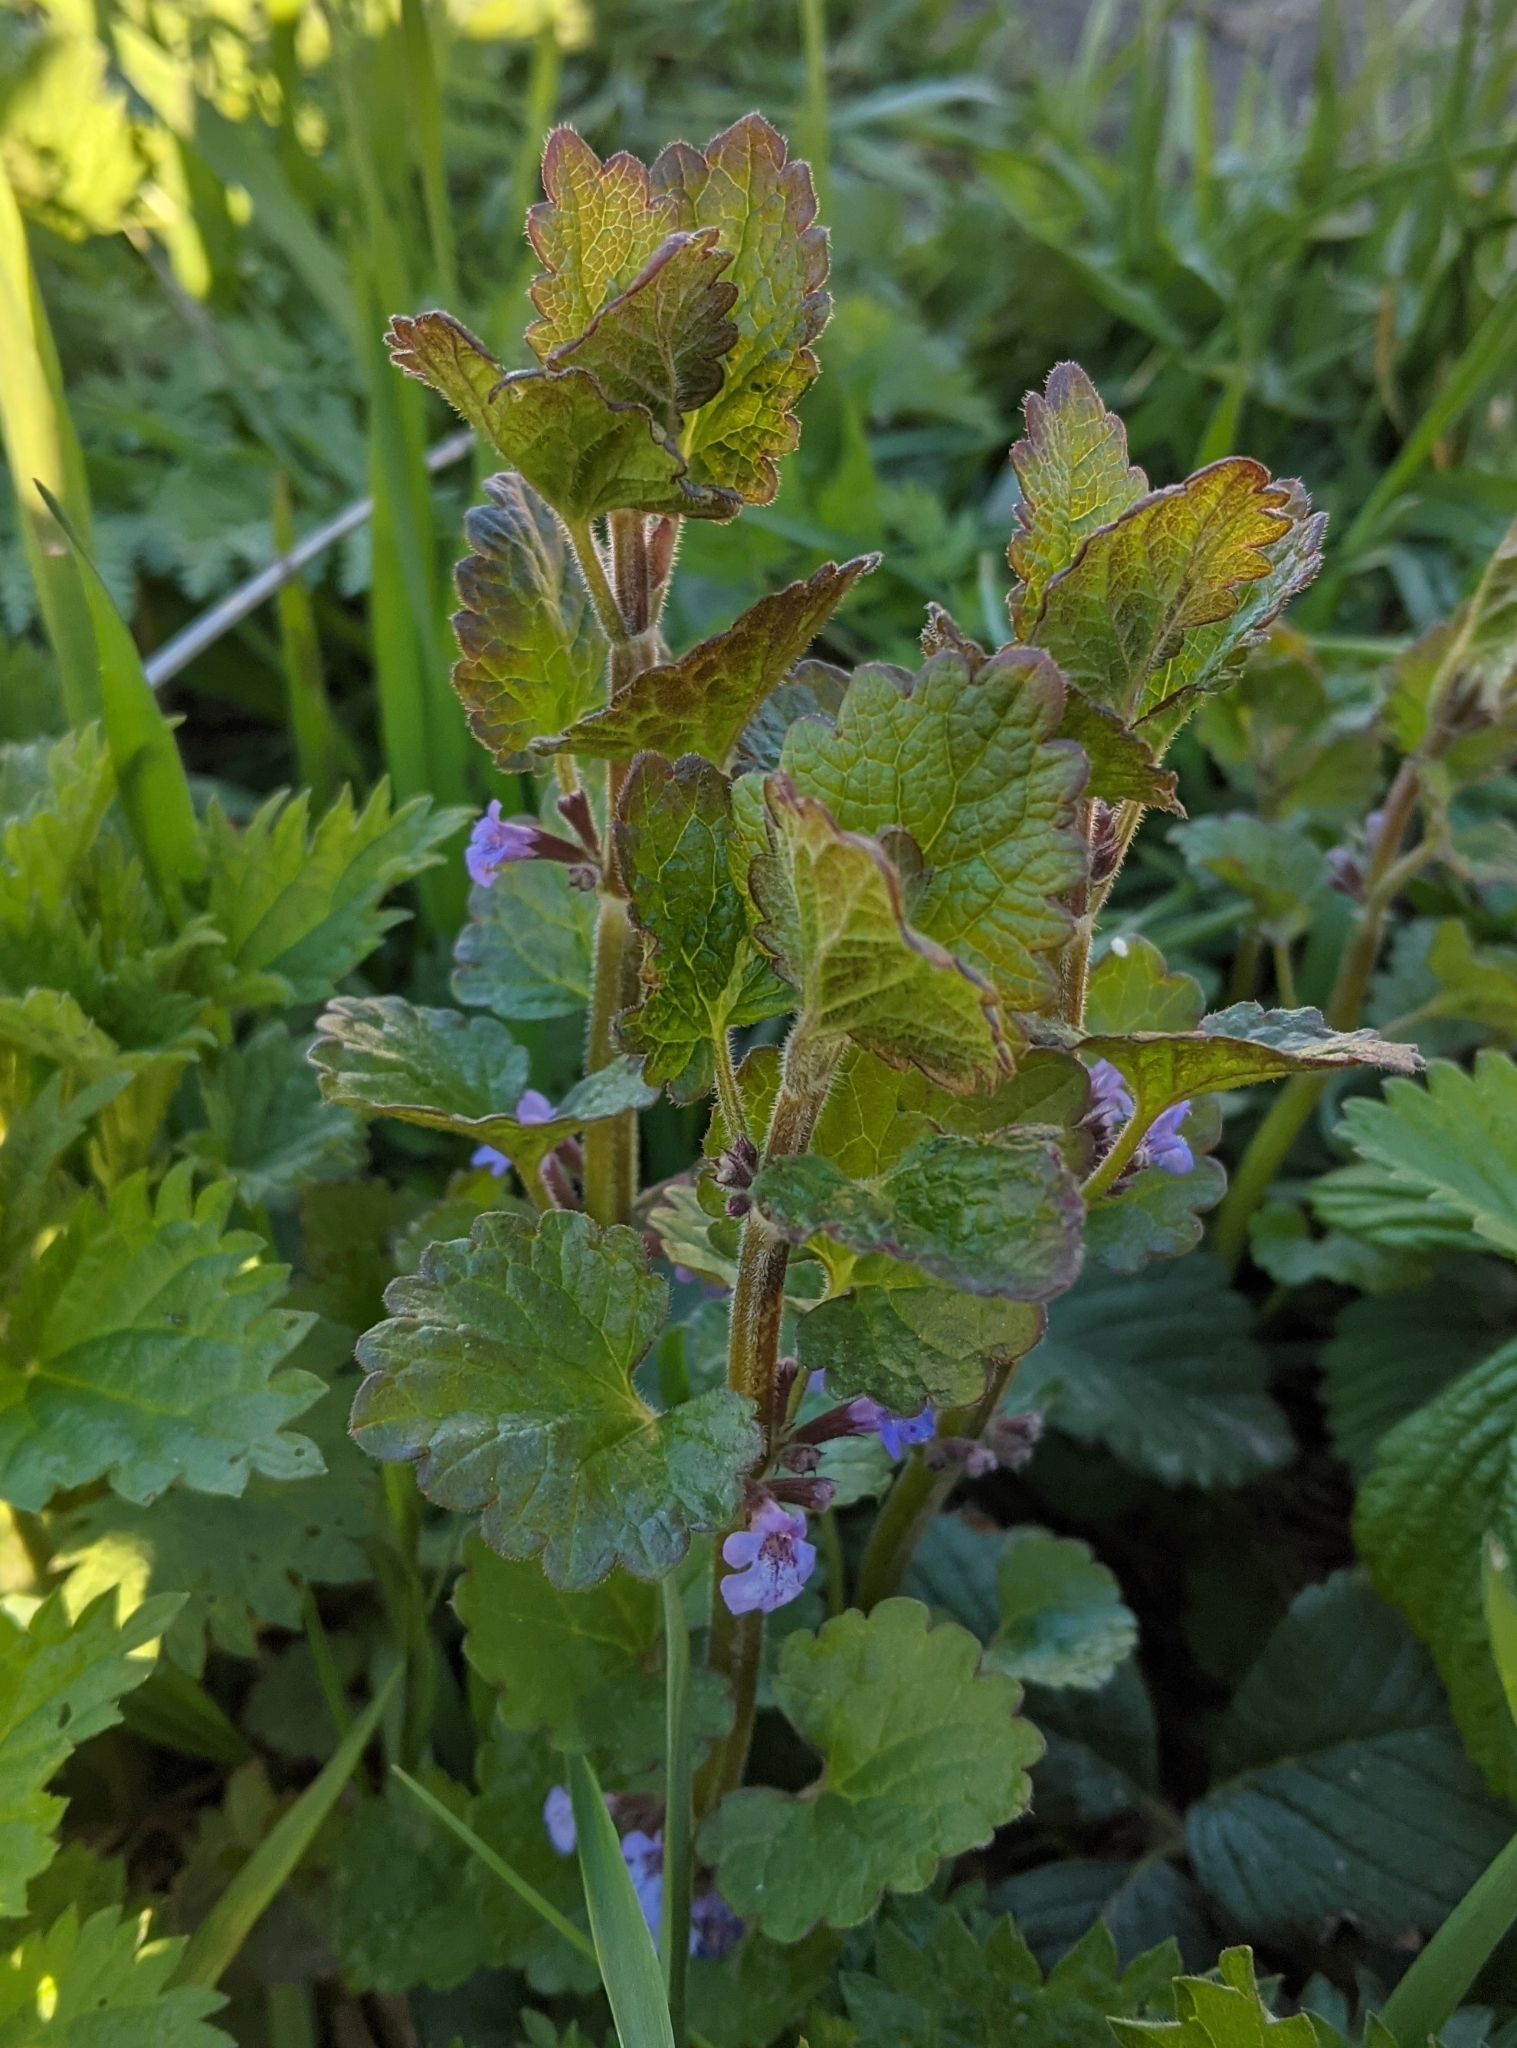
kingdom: Plantae
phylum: Tracheophyta
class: Magnoliopsida
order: Lamiales
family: Lamiaceae
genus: Glechoma
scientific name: Glechoma hederacea
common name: Ground ivy
